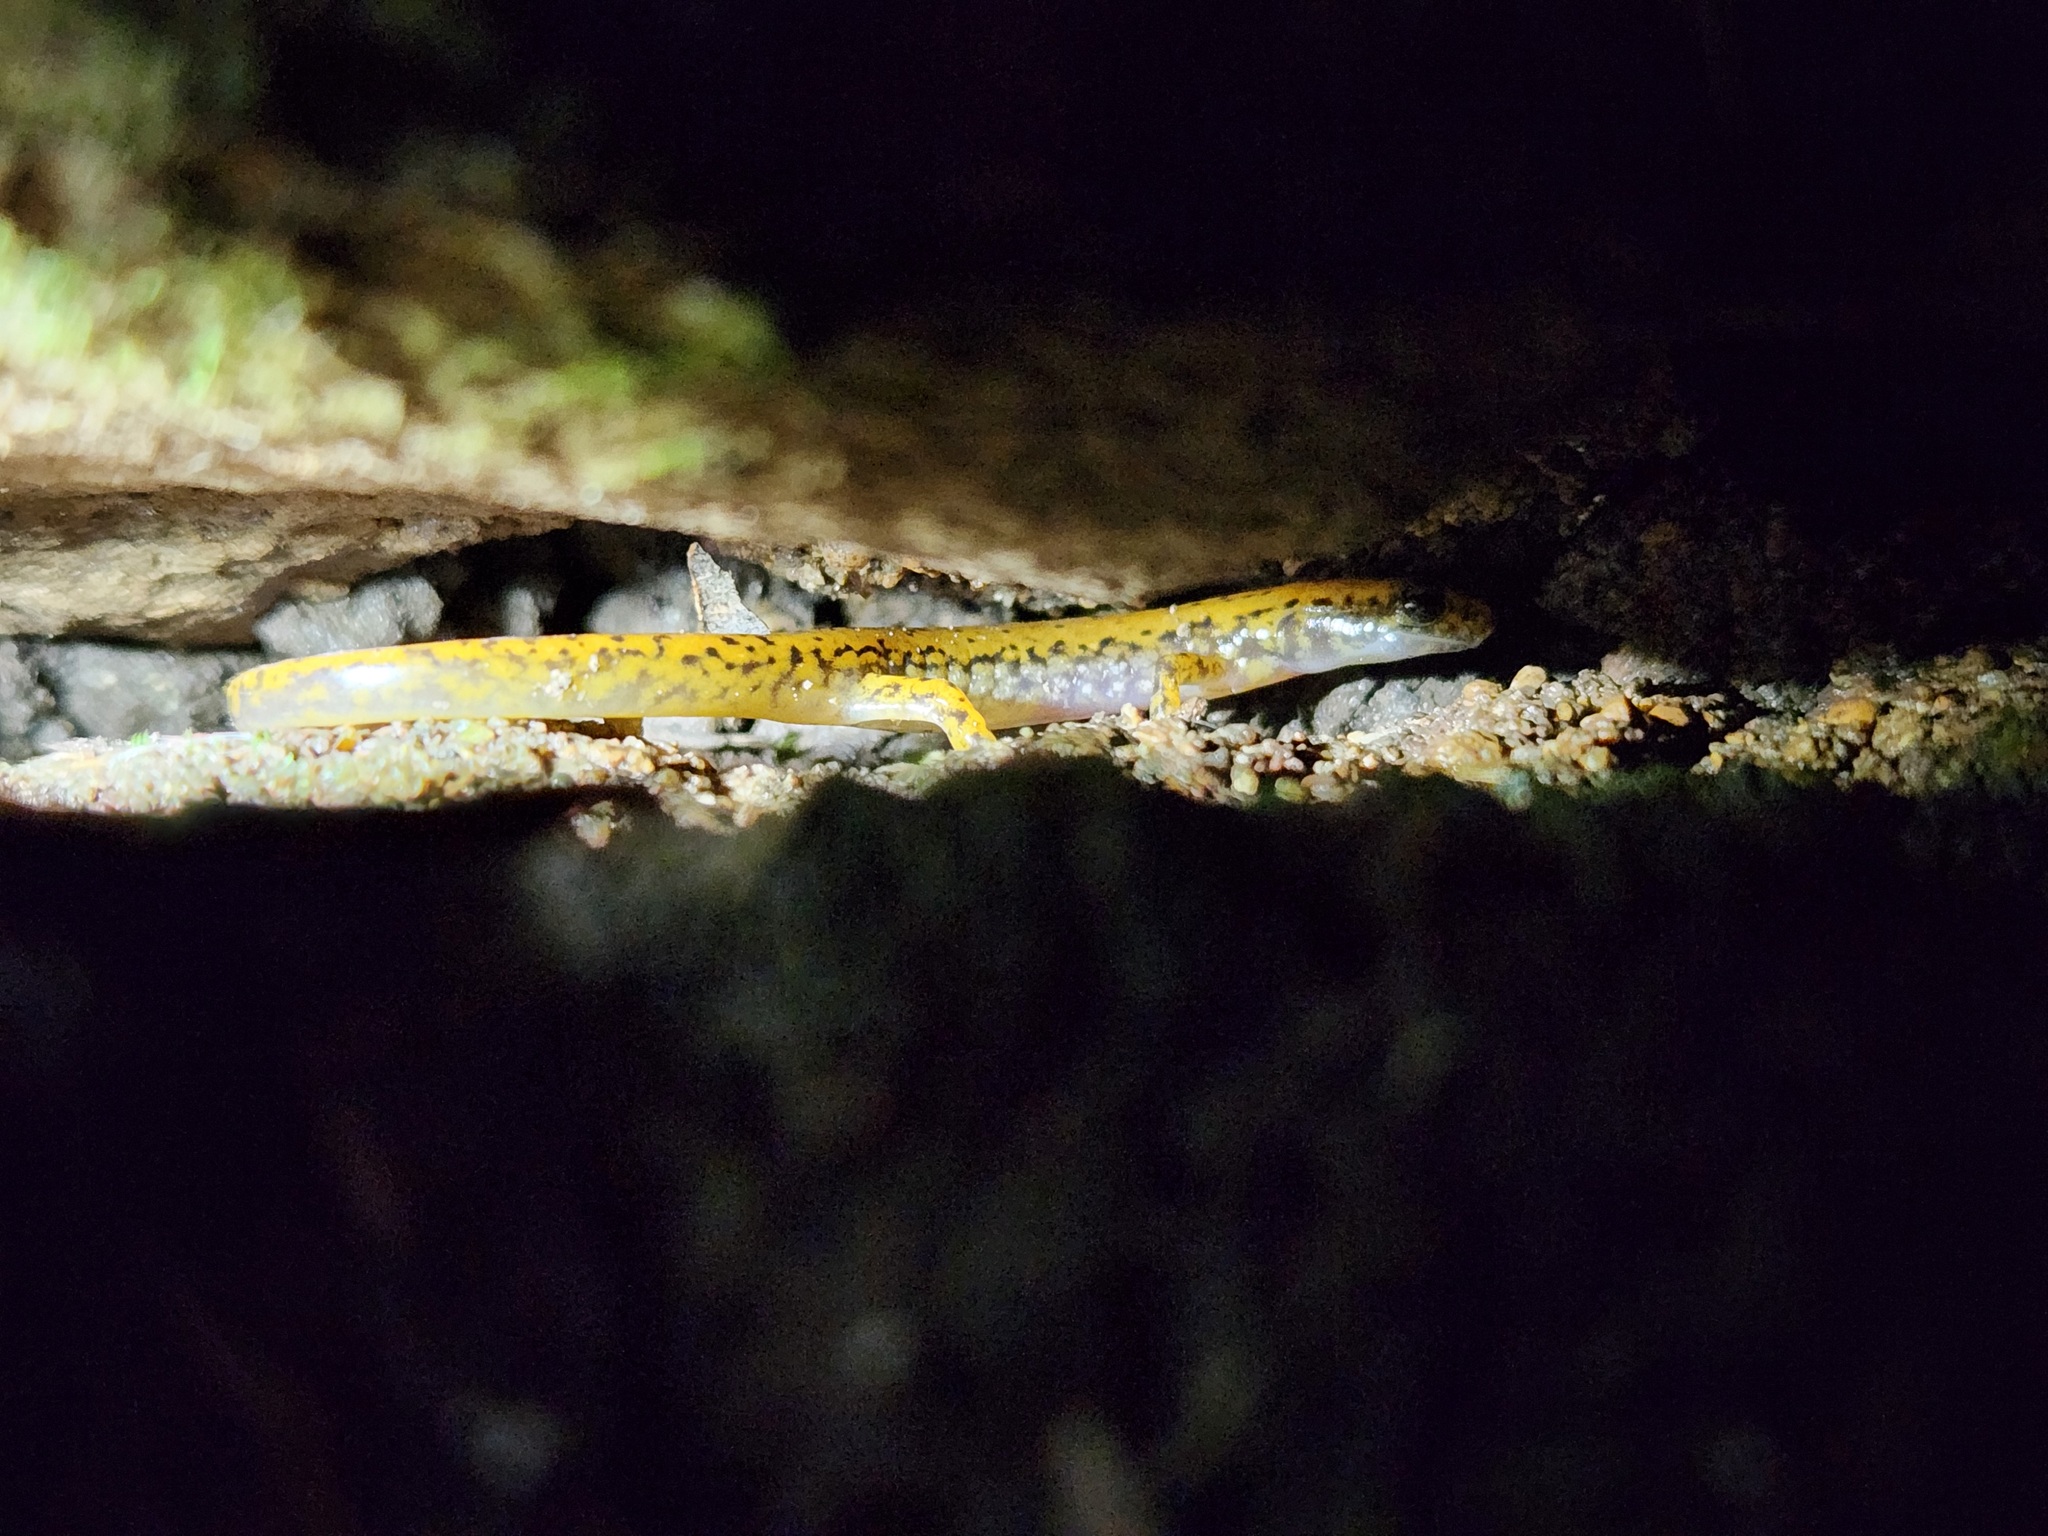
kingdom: Animalia
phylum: Chordata
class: Amphibia
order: Caudata
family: Plethodontidae
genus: Eurycea
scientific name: Eurycea lucifuga
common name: Cave salamander
